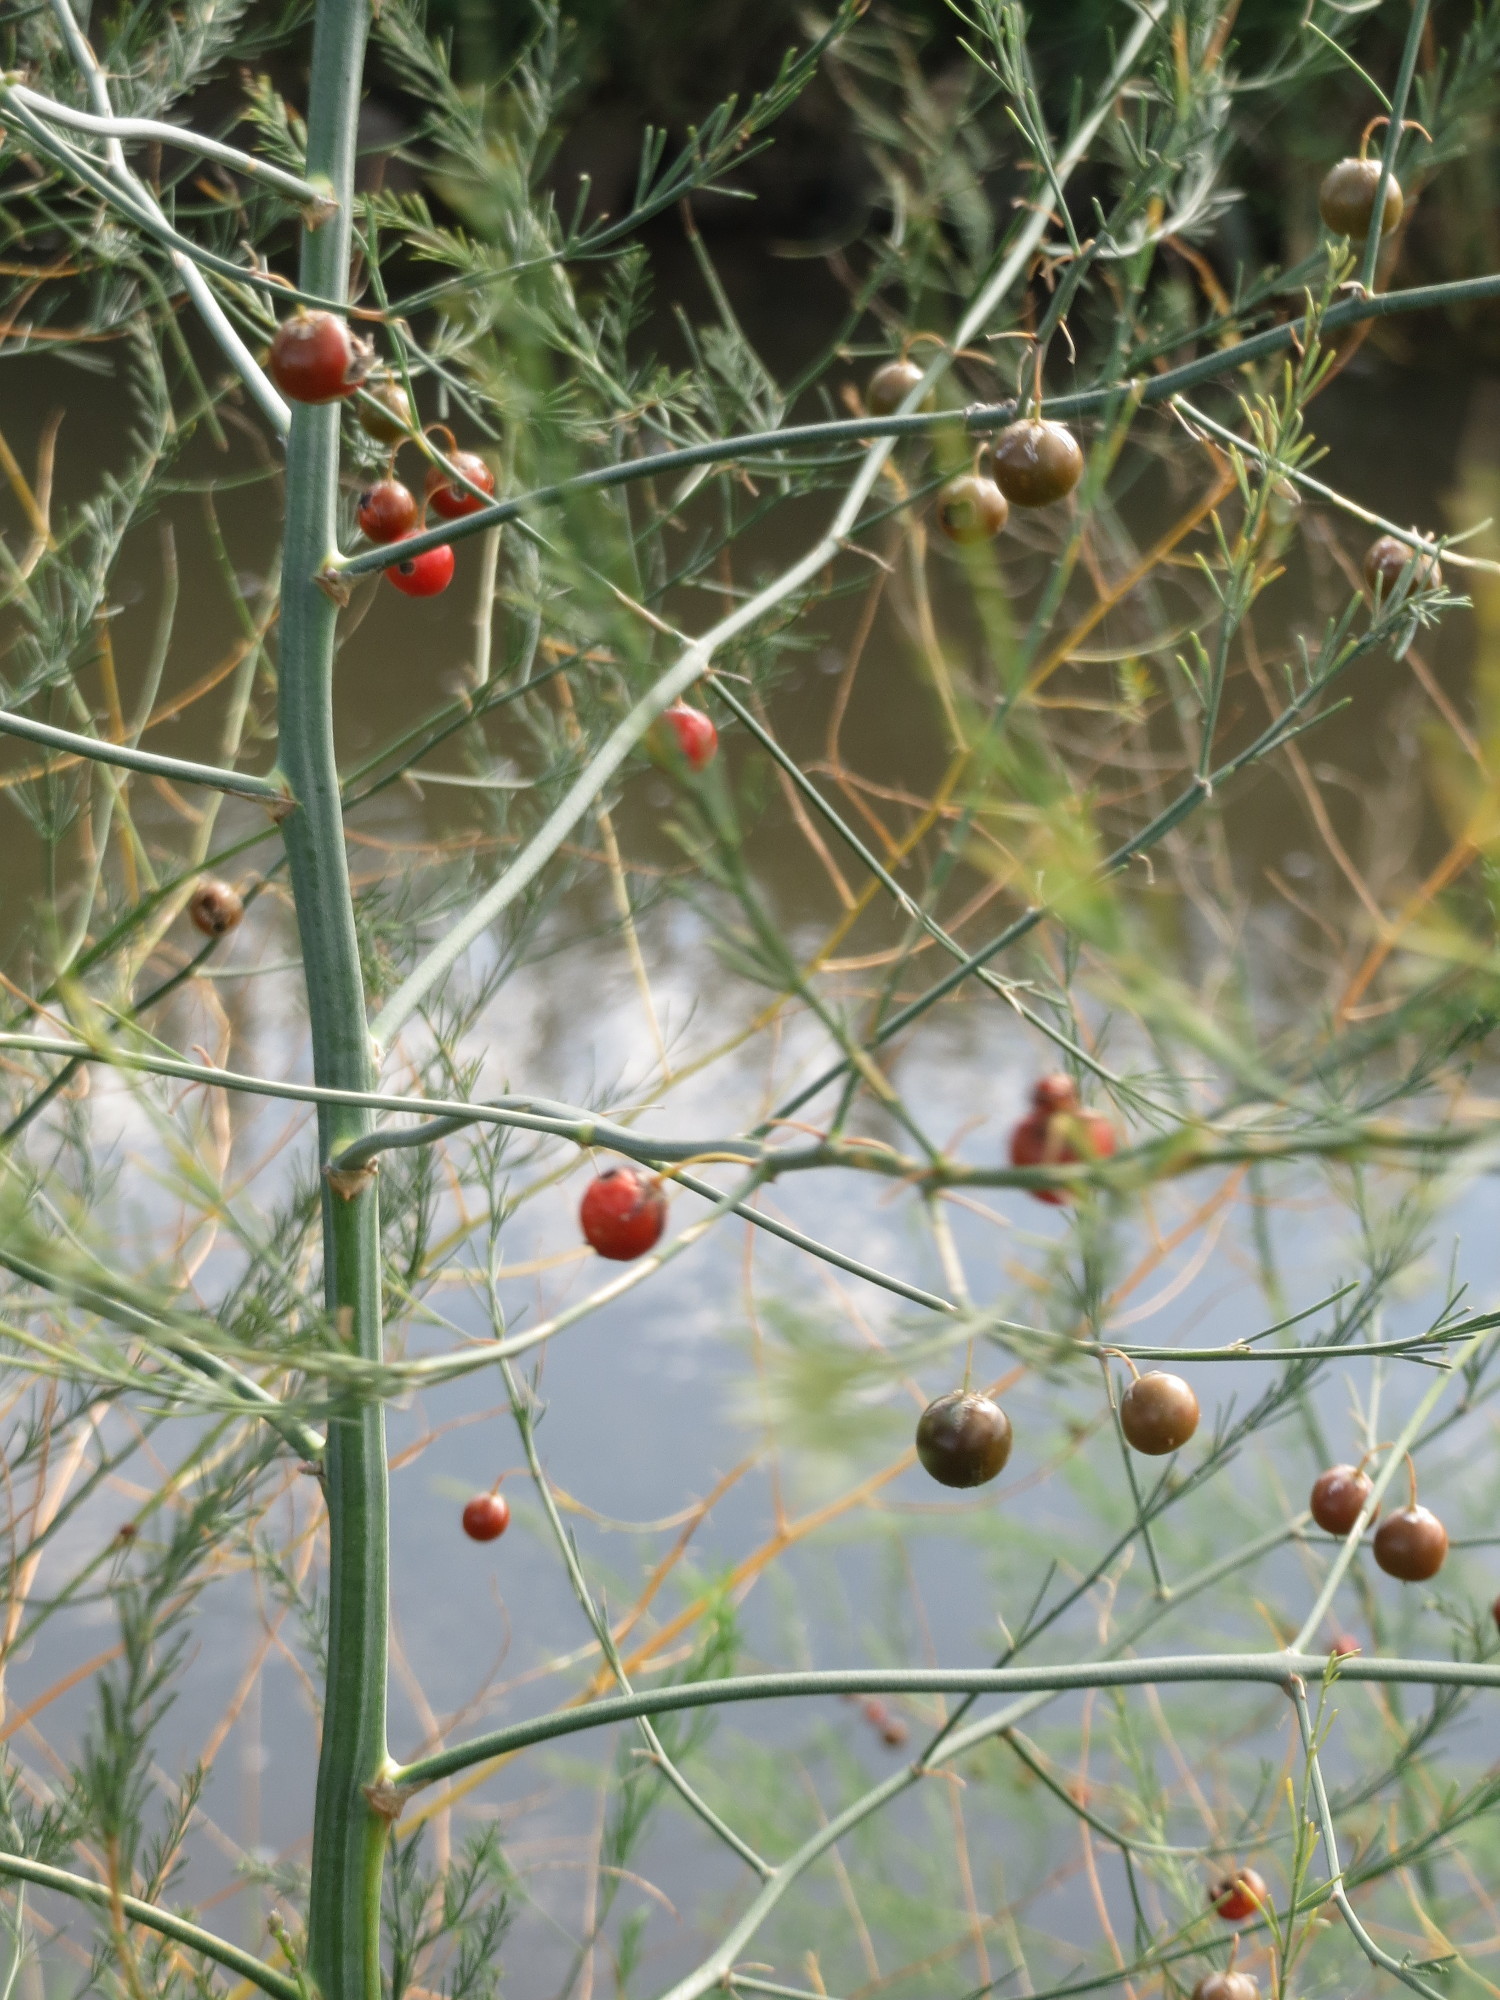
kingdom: Plantae
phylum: Tracheophyta
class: Liliopsida
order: Asparagales
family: Asparagaceae
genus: Asparagus
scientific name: Asparagus officinalis
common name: Garden asparagus
